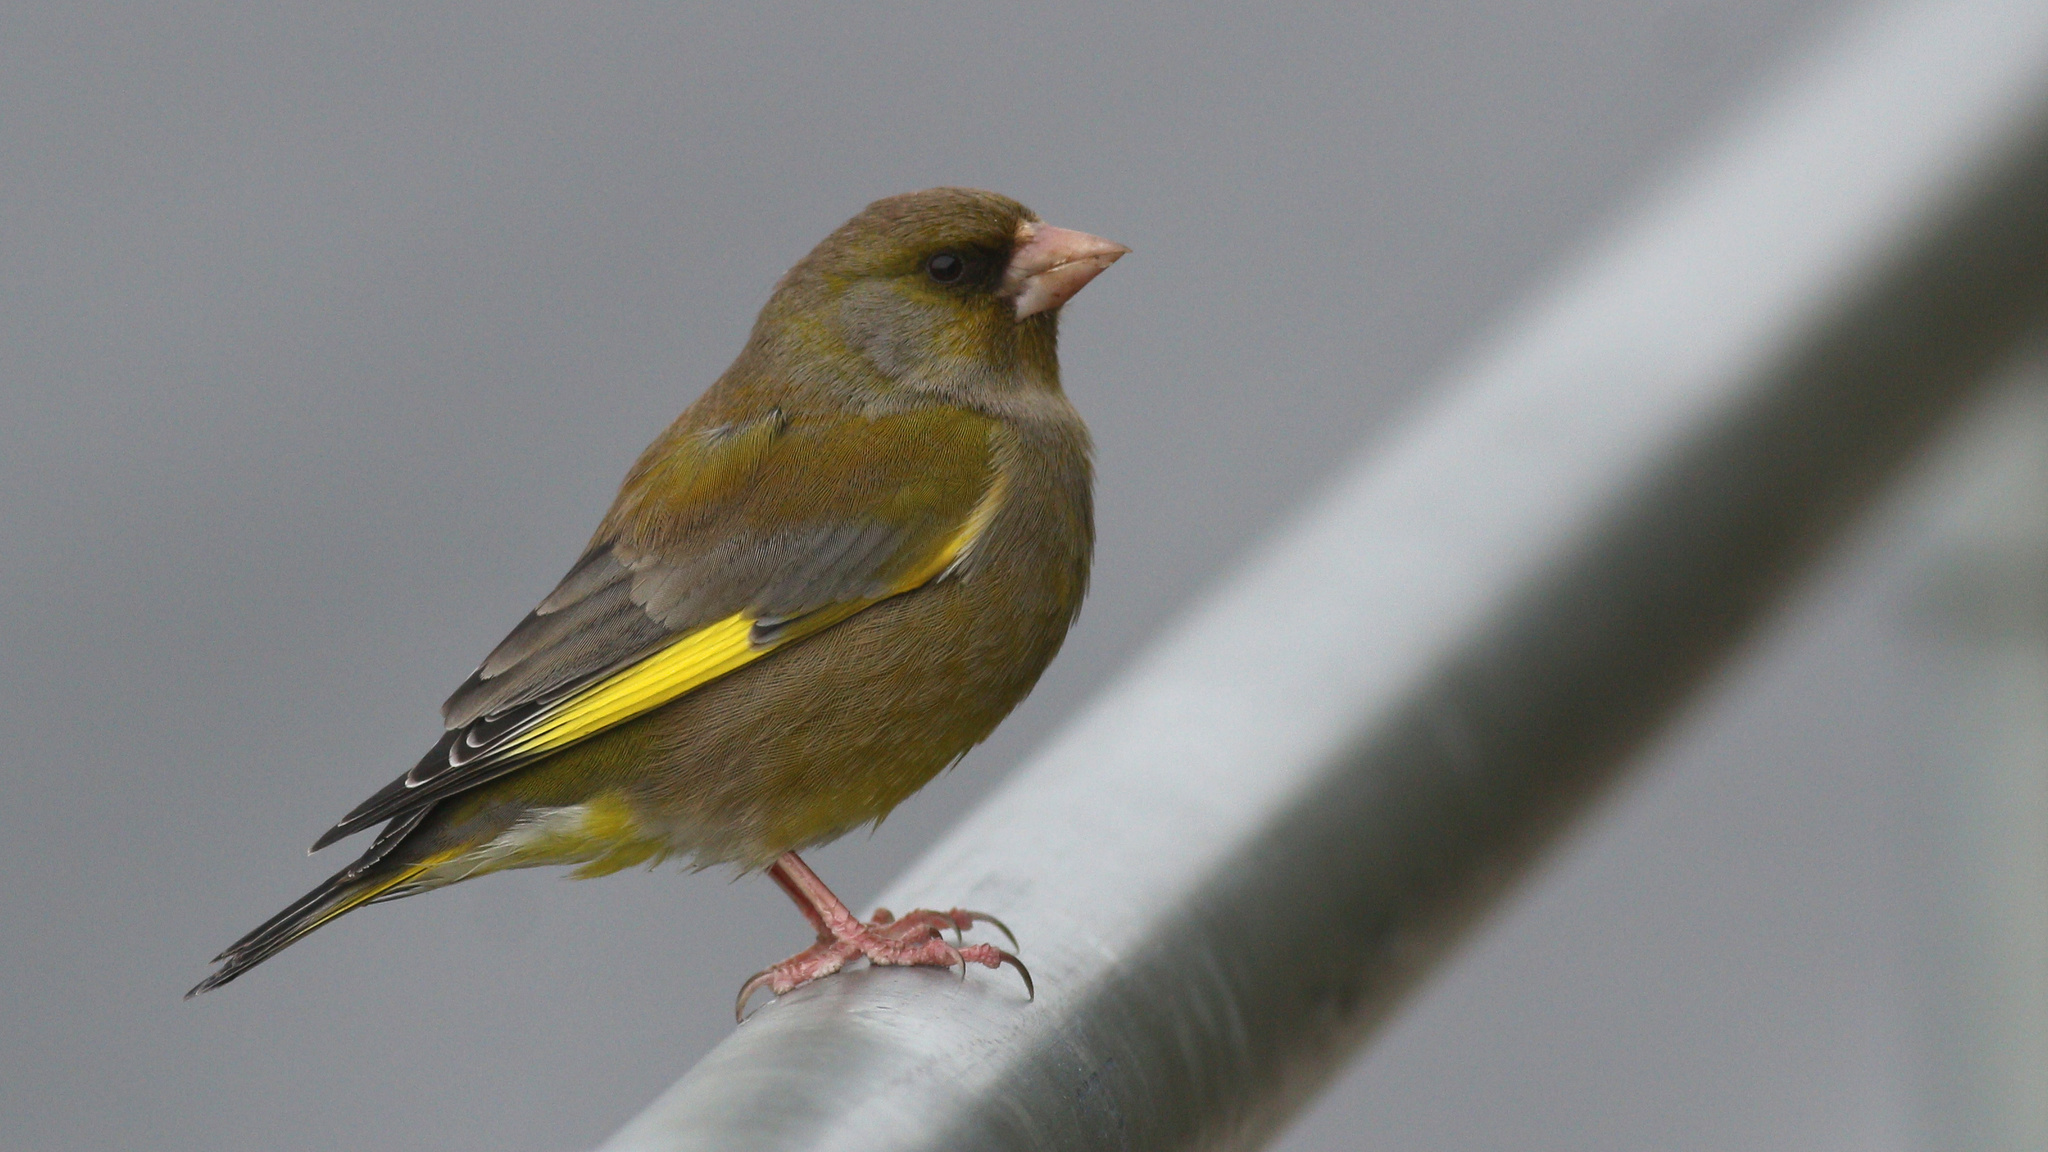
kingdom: Plantae
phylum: Tracheophyta
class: Liliopsida
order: Poales
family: Poaceae
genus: Chloris
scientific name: Chloris chloris
